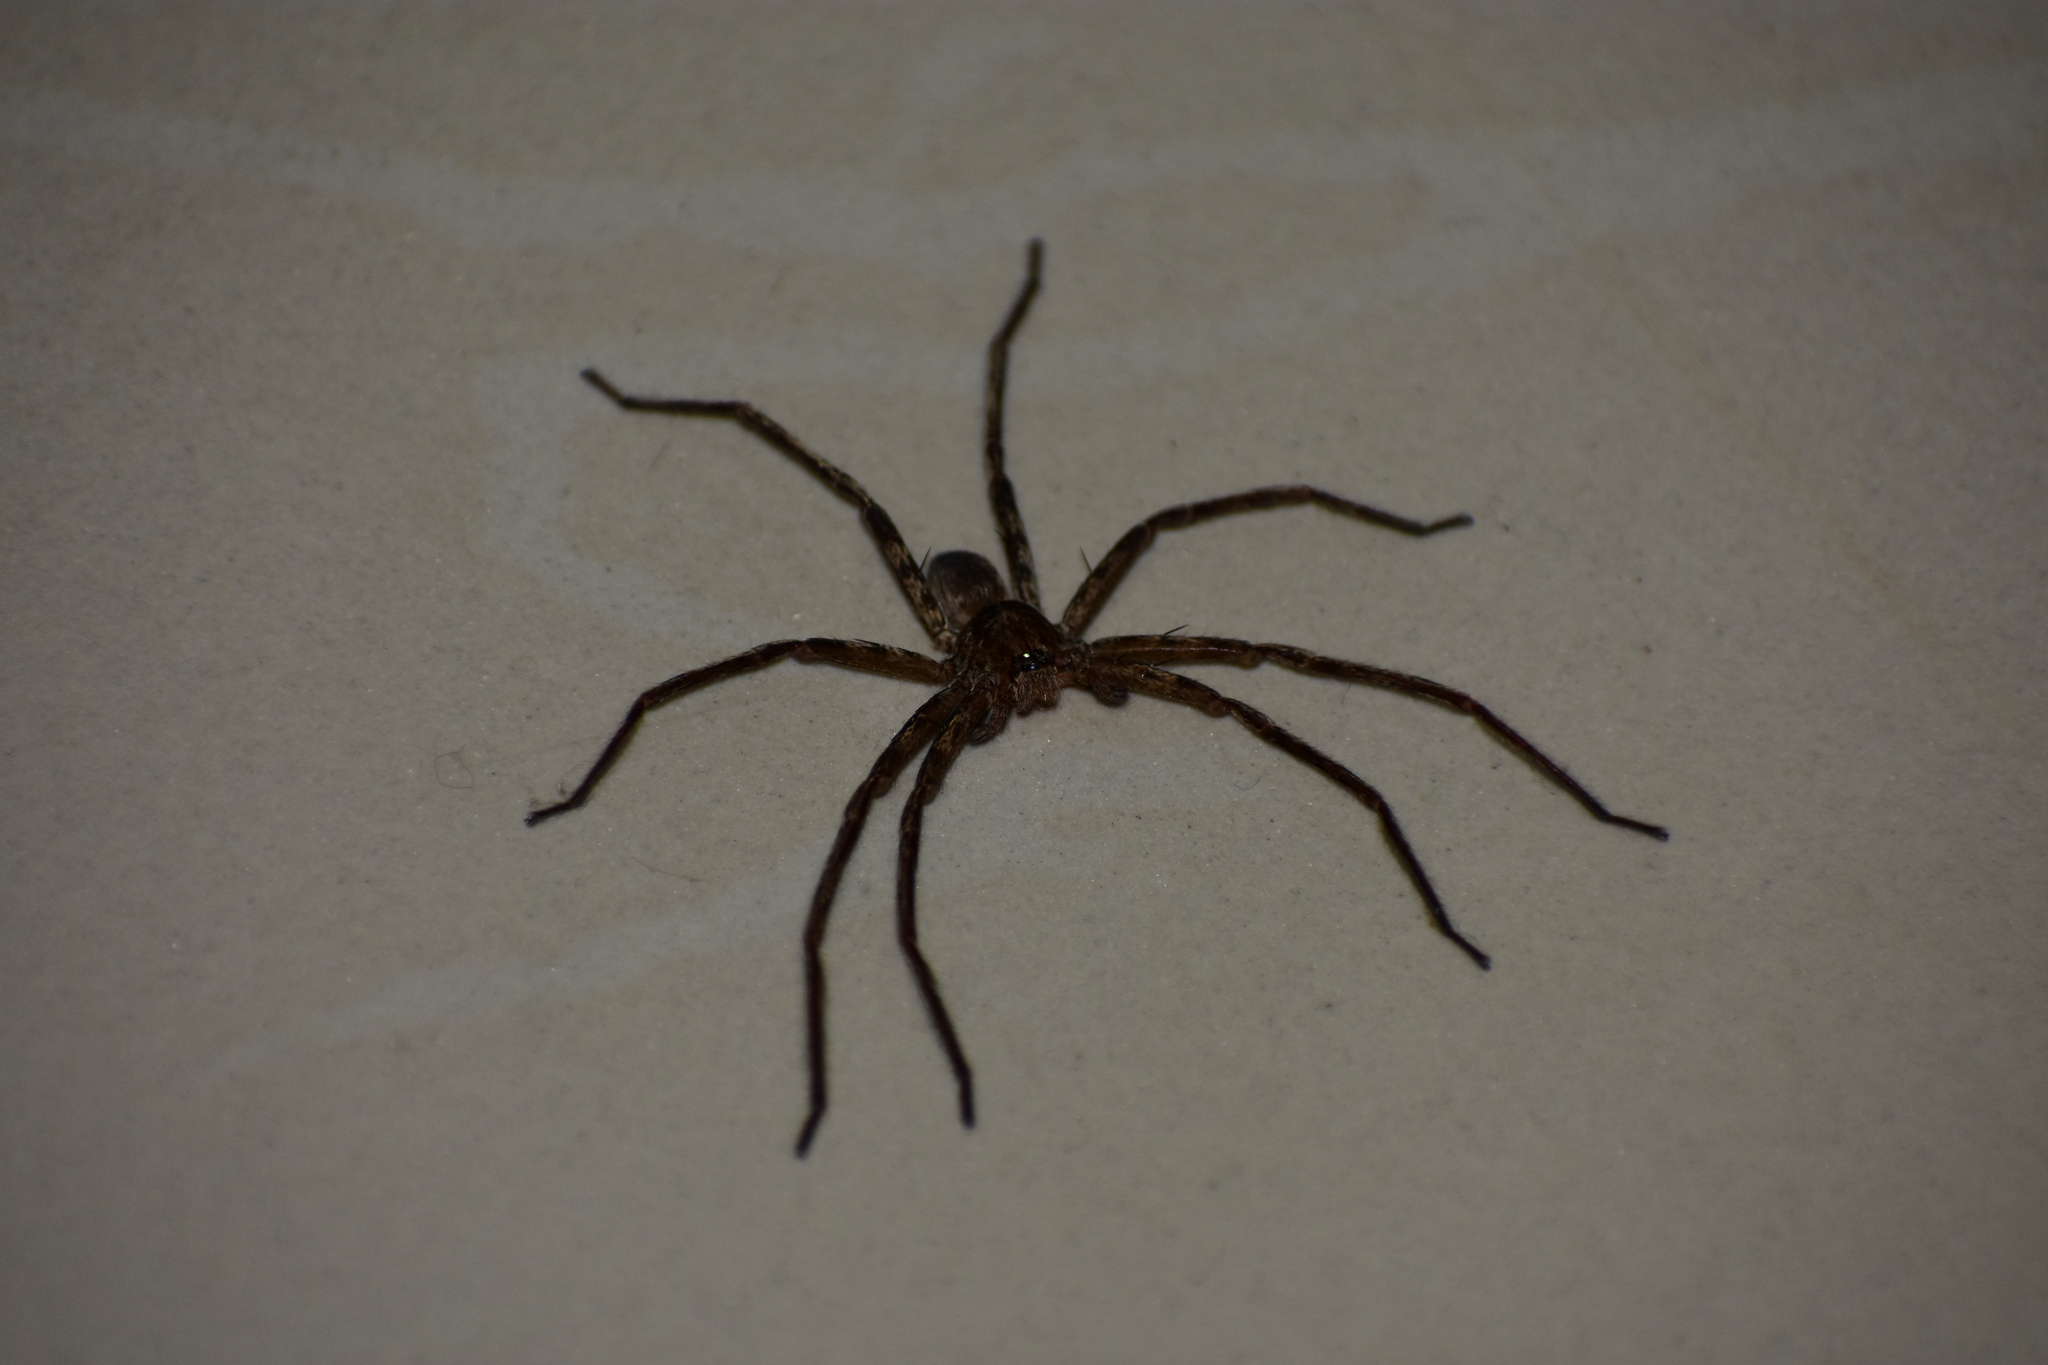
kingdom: Animalia
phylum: Arthropoda
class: Arachnida
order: Araneae
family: Sparassidae
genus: Heteropoda
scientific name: Heteropoda venatoria
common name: Huntsman spider
